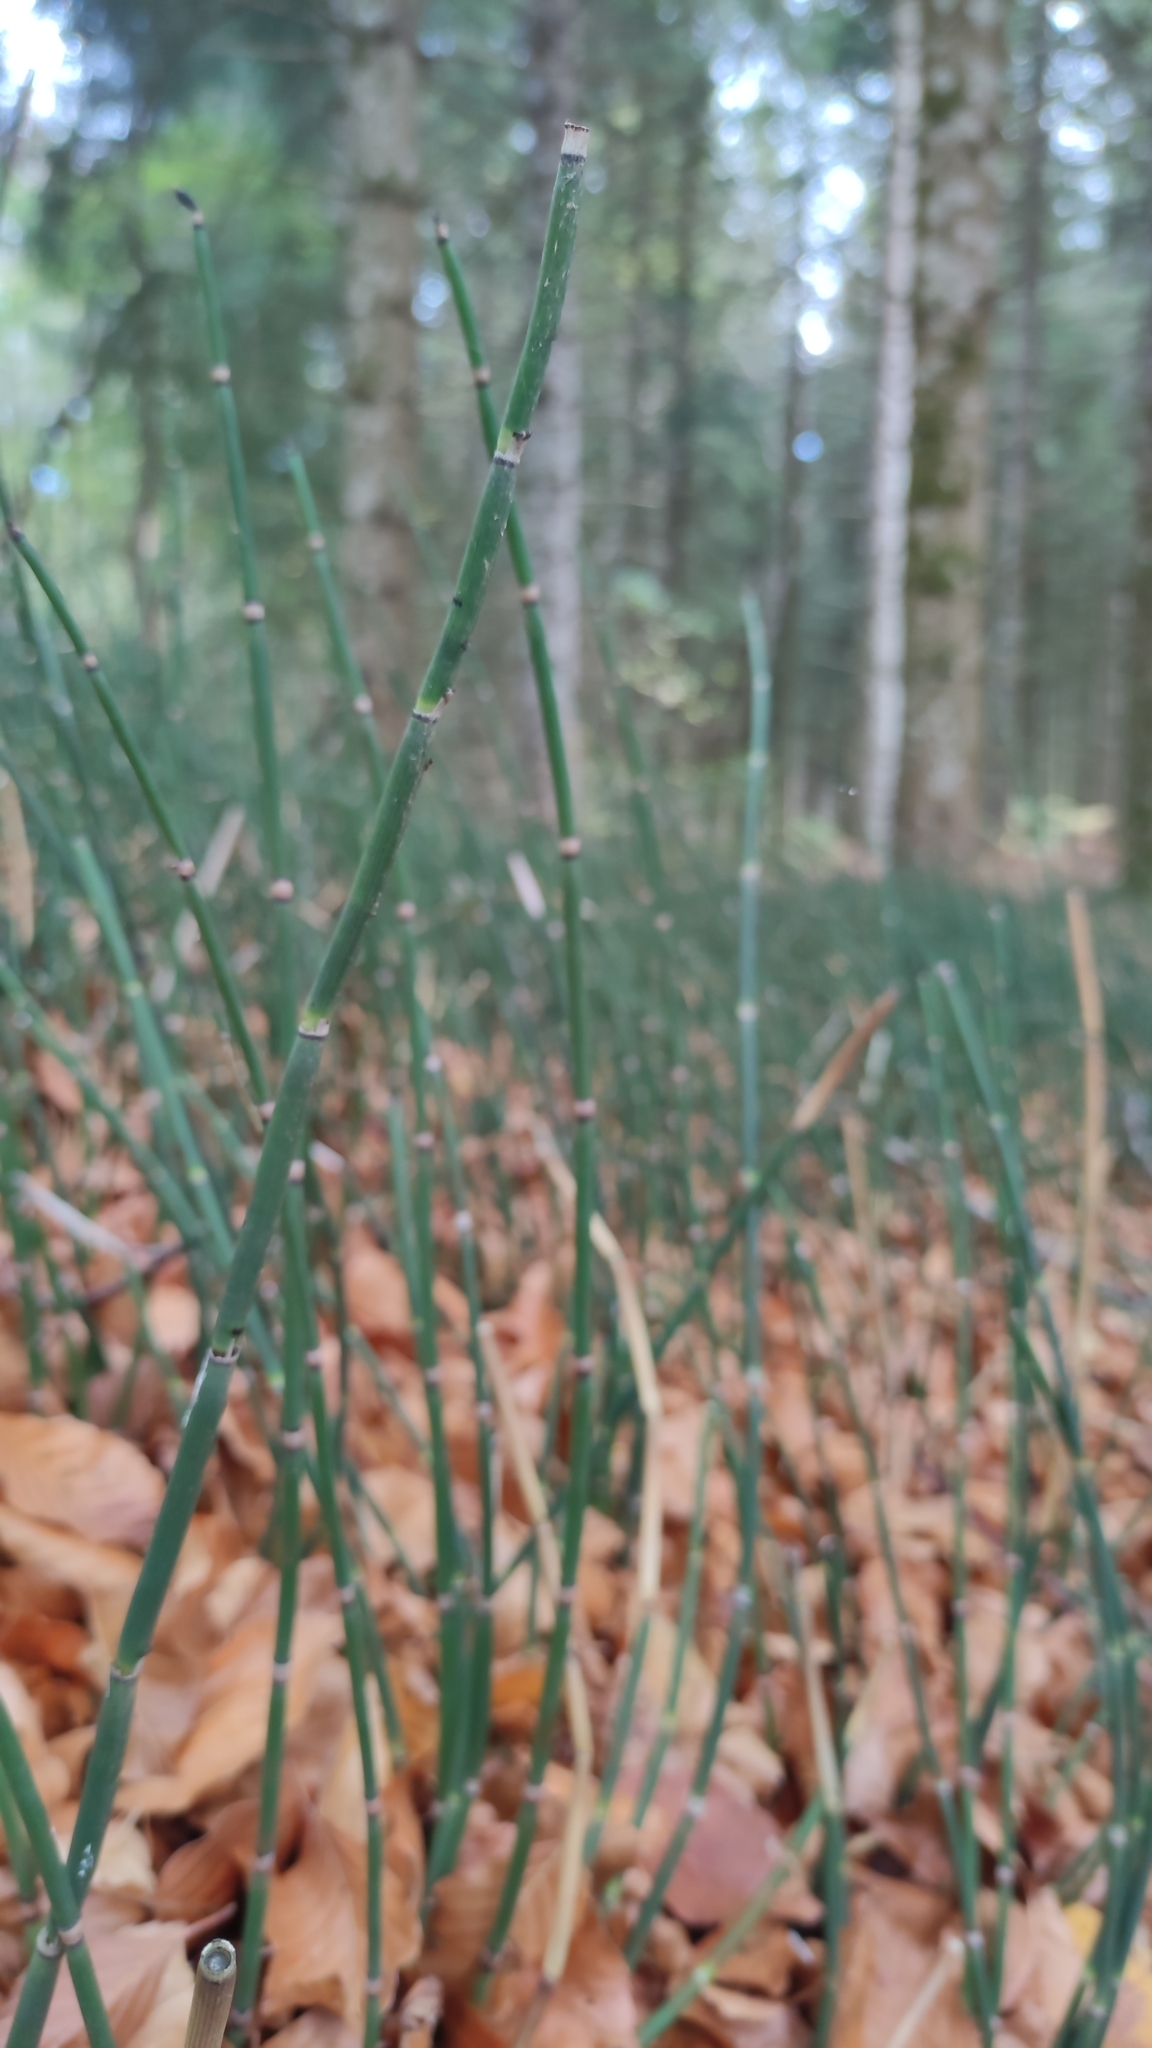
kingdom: Plantae
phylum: Tracheophyta
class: Polypodiopsida
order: Equisetales
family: Equisetaceae
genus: Equisetum
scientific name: Equisetum hyemale
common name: Rough horsetail
